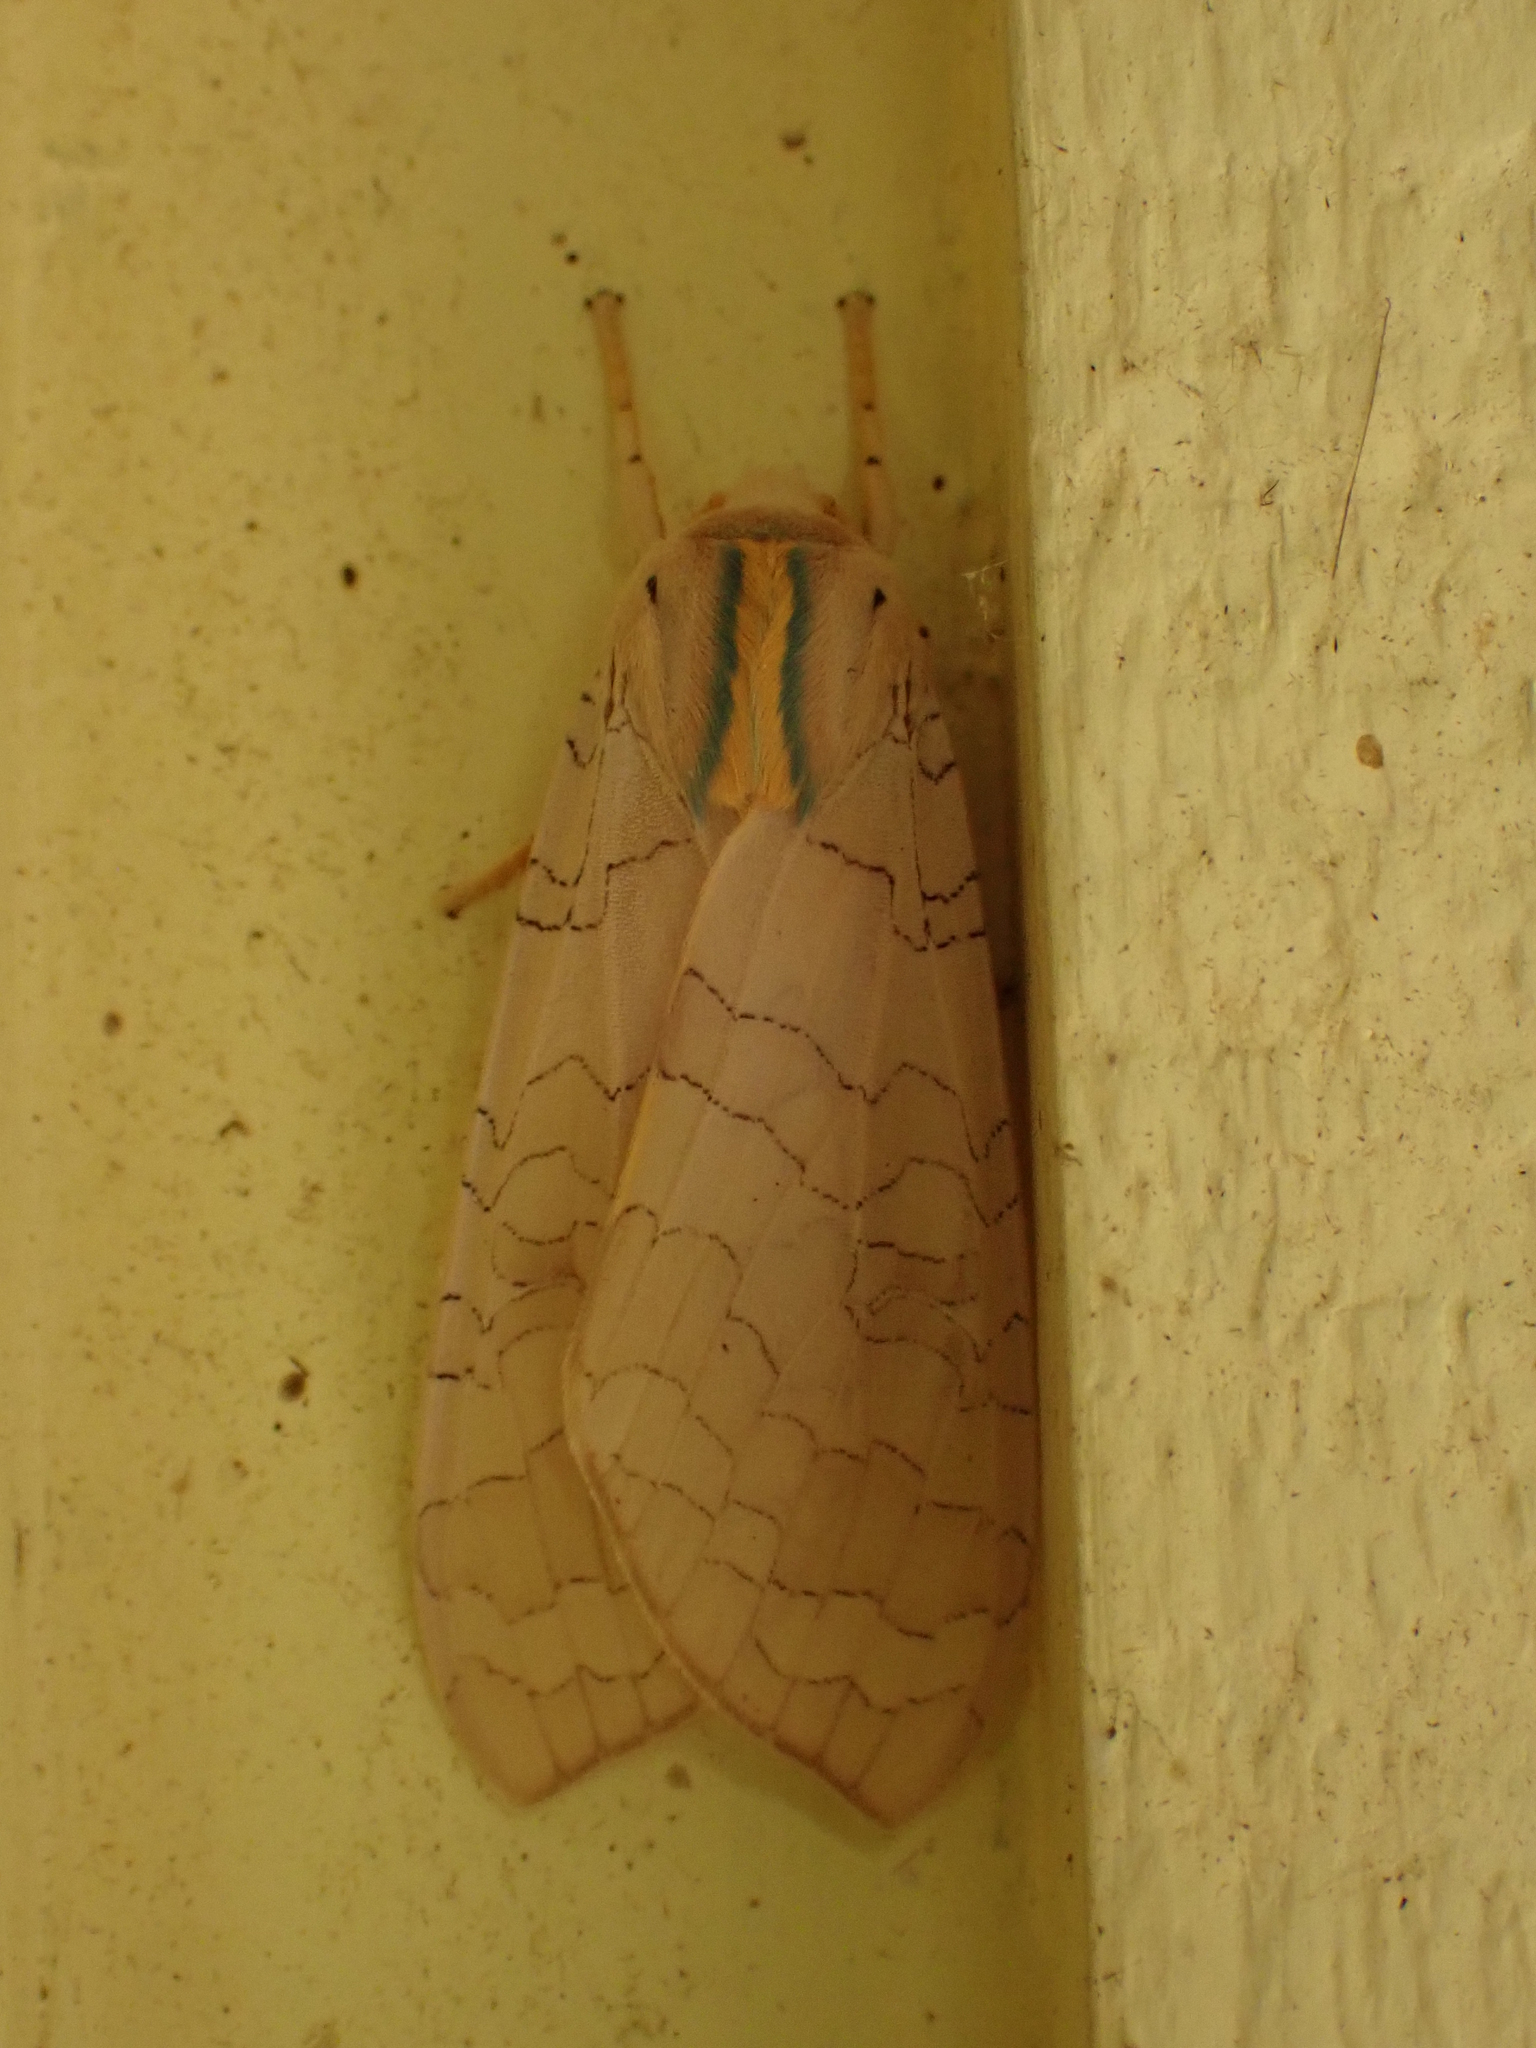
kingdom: Animalia
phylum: Arthropoda
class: Insecta
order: Lepidoptera
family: Erebidae
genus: Halysidota
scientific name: Halysidota tessellaris
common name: Banded tussock moth
